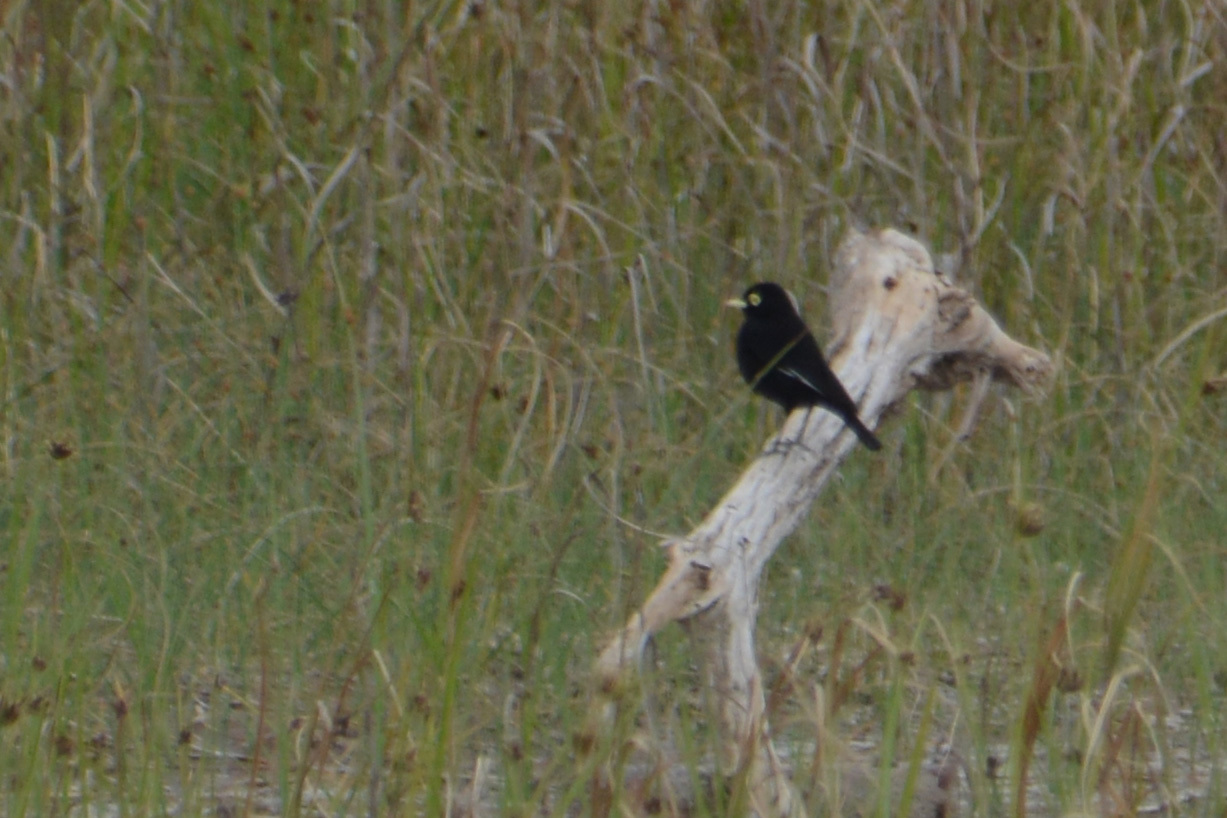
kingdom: Animalia
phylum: Chordata
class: Aves
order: Passeriformes
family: Tyrannidae
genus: Hymenops
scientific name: Hymenops perspicillatus
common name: Spectacled tyrant
